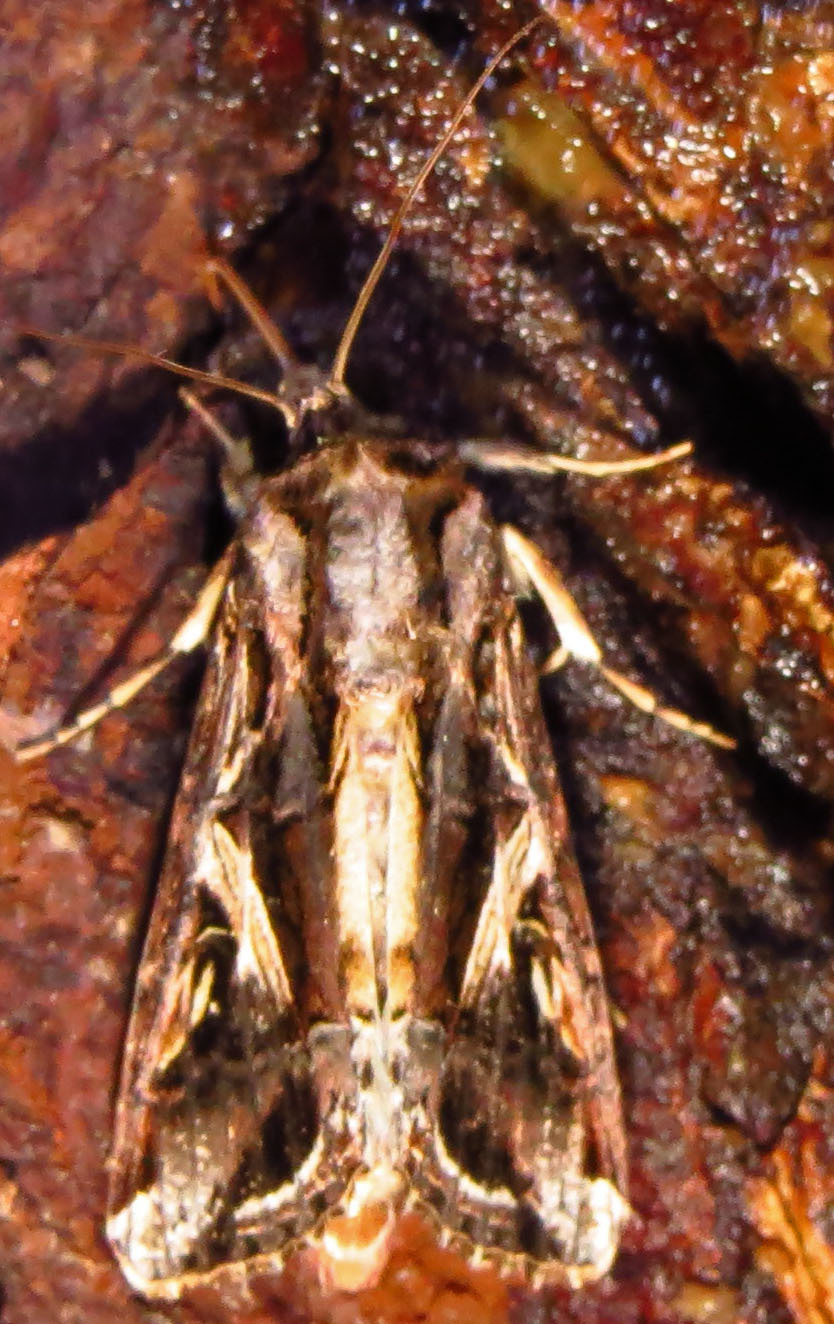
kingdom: Animalia
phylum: Arthropoda
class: Insecta
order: Lepidoptera
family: Noctuidae
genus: Spodoptera
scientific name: Spodoptera dolichos
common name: Sweetpotato armyworm
